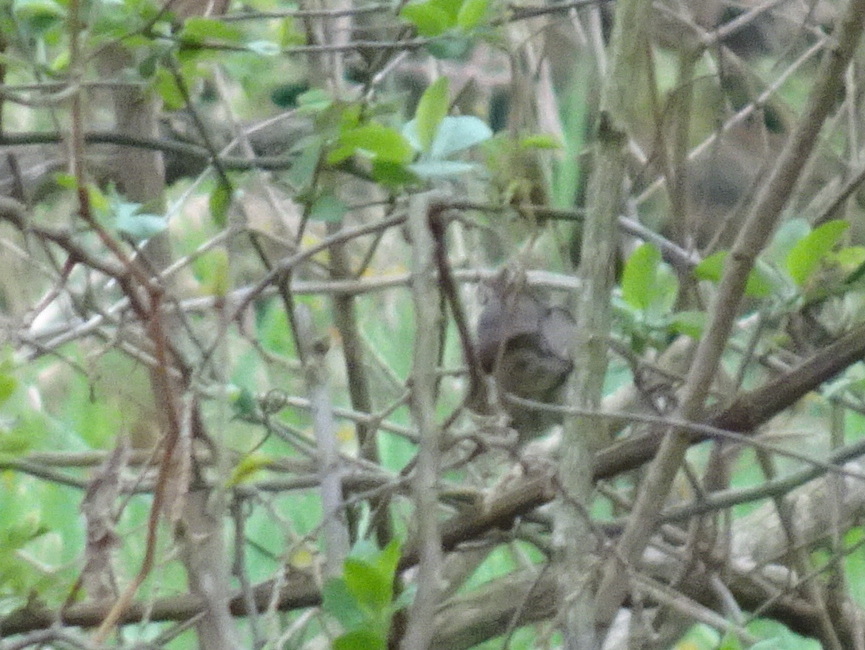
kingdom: Animalia
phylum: Chordata
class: Aves
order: Passeriformes
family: Parulidae
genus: Parkesia
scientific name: Parkesia noveboracensis
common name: Northern waterthrush
